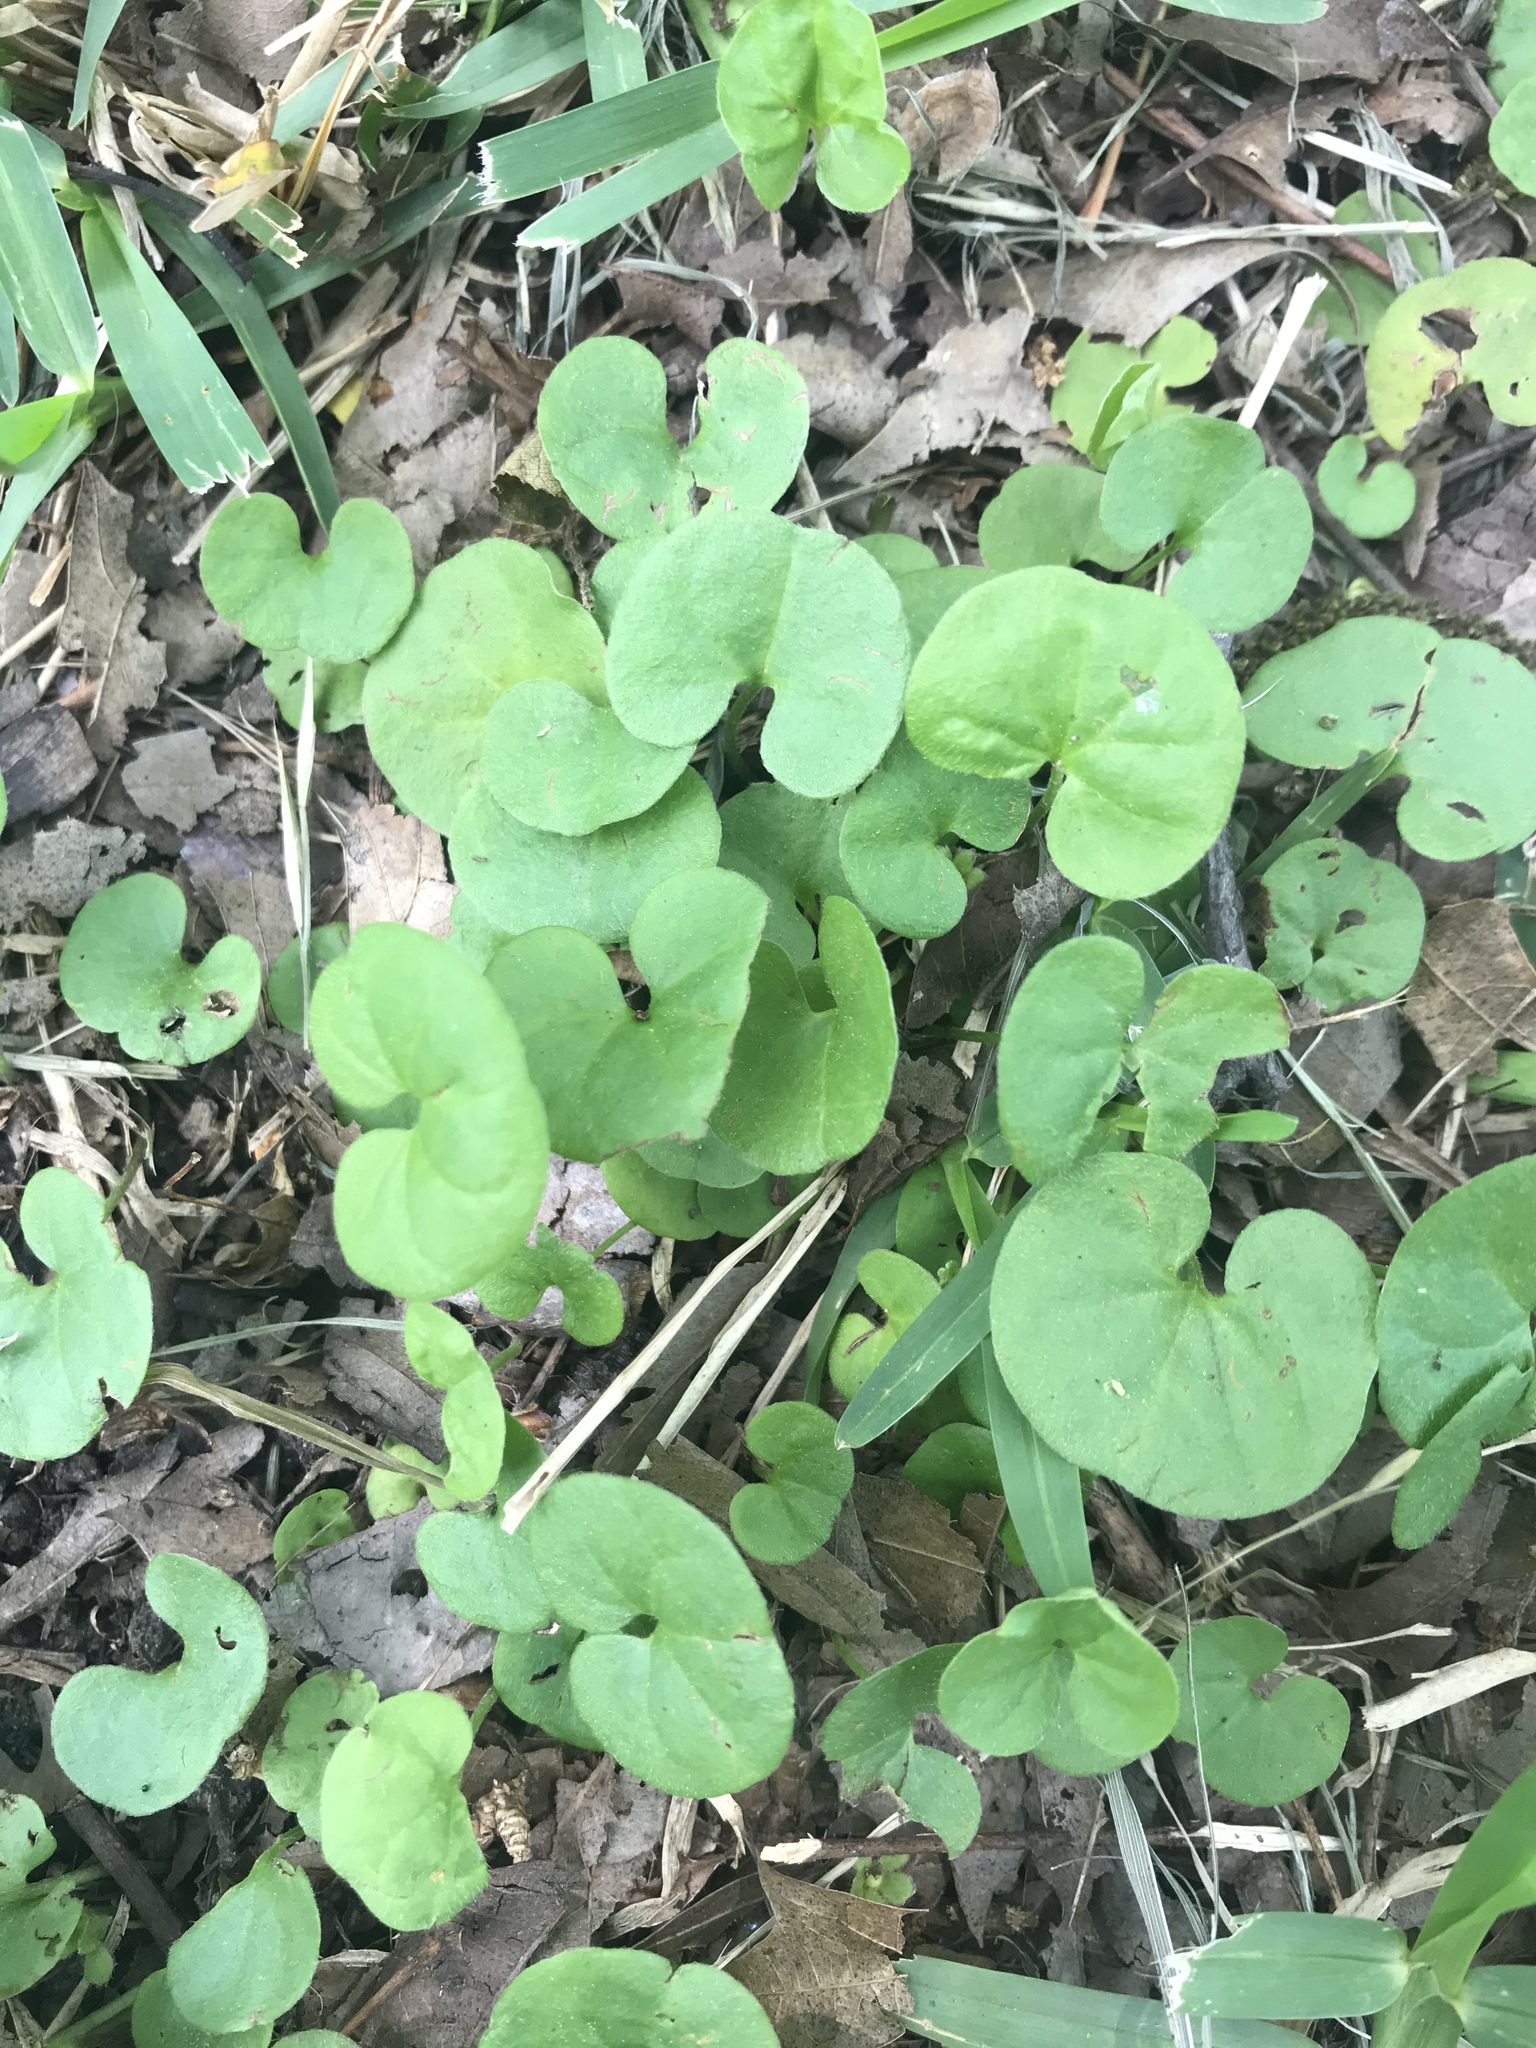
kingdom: Plantae
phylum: Tracheophyta
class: Magnoliopsida
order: Solanales
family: Convolvulaceae
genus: Dichondra
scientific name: Dichondra carolinensis
